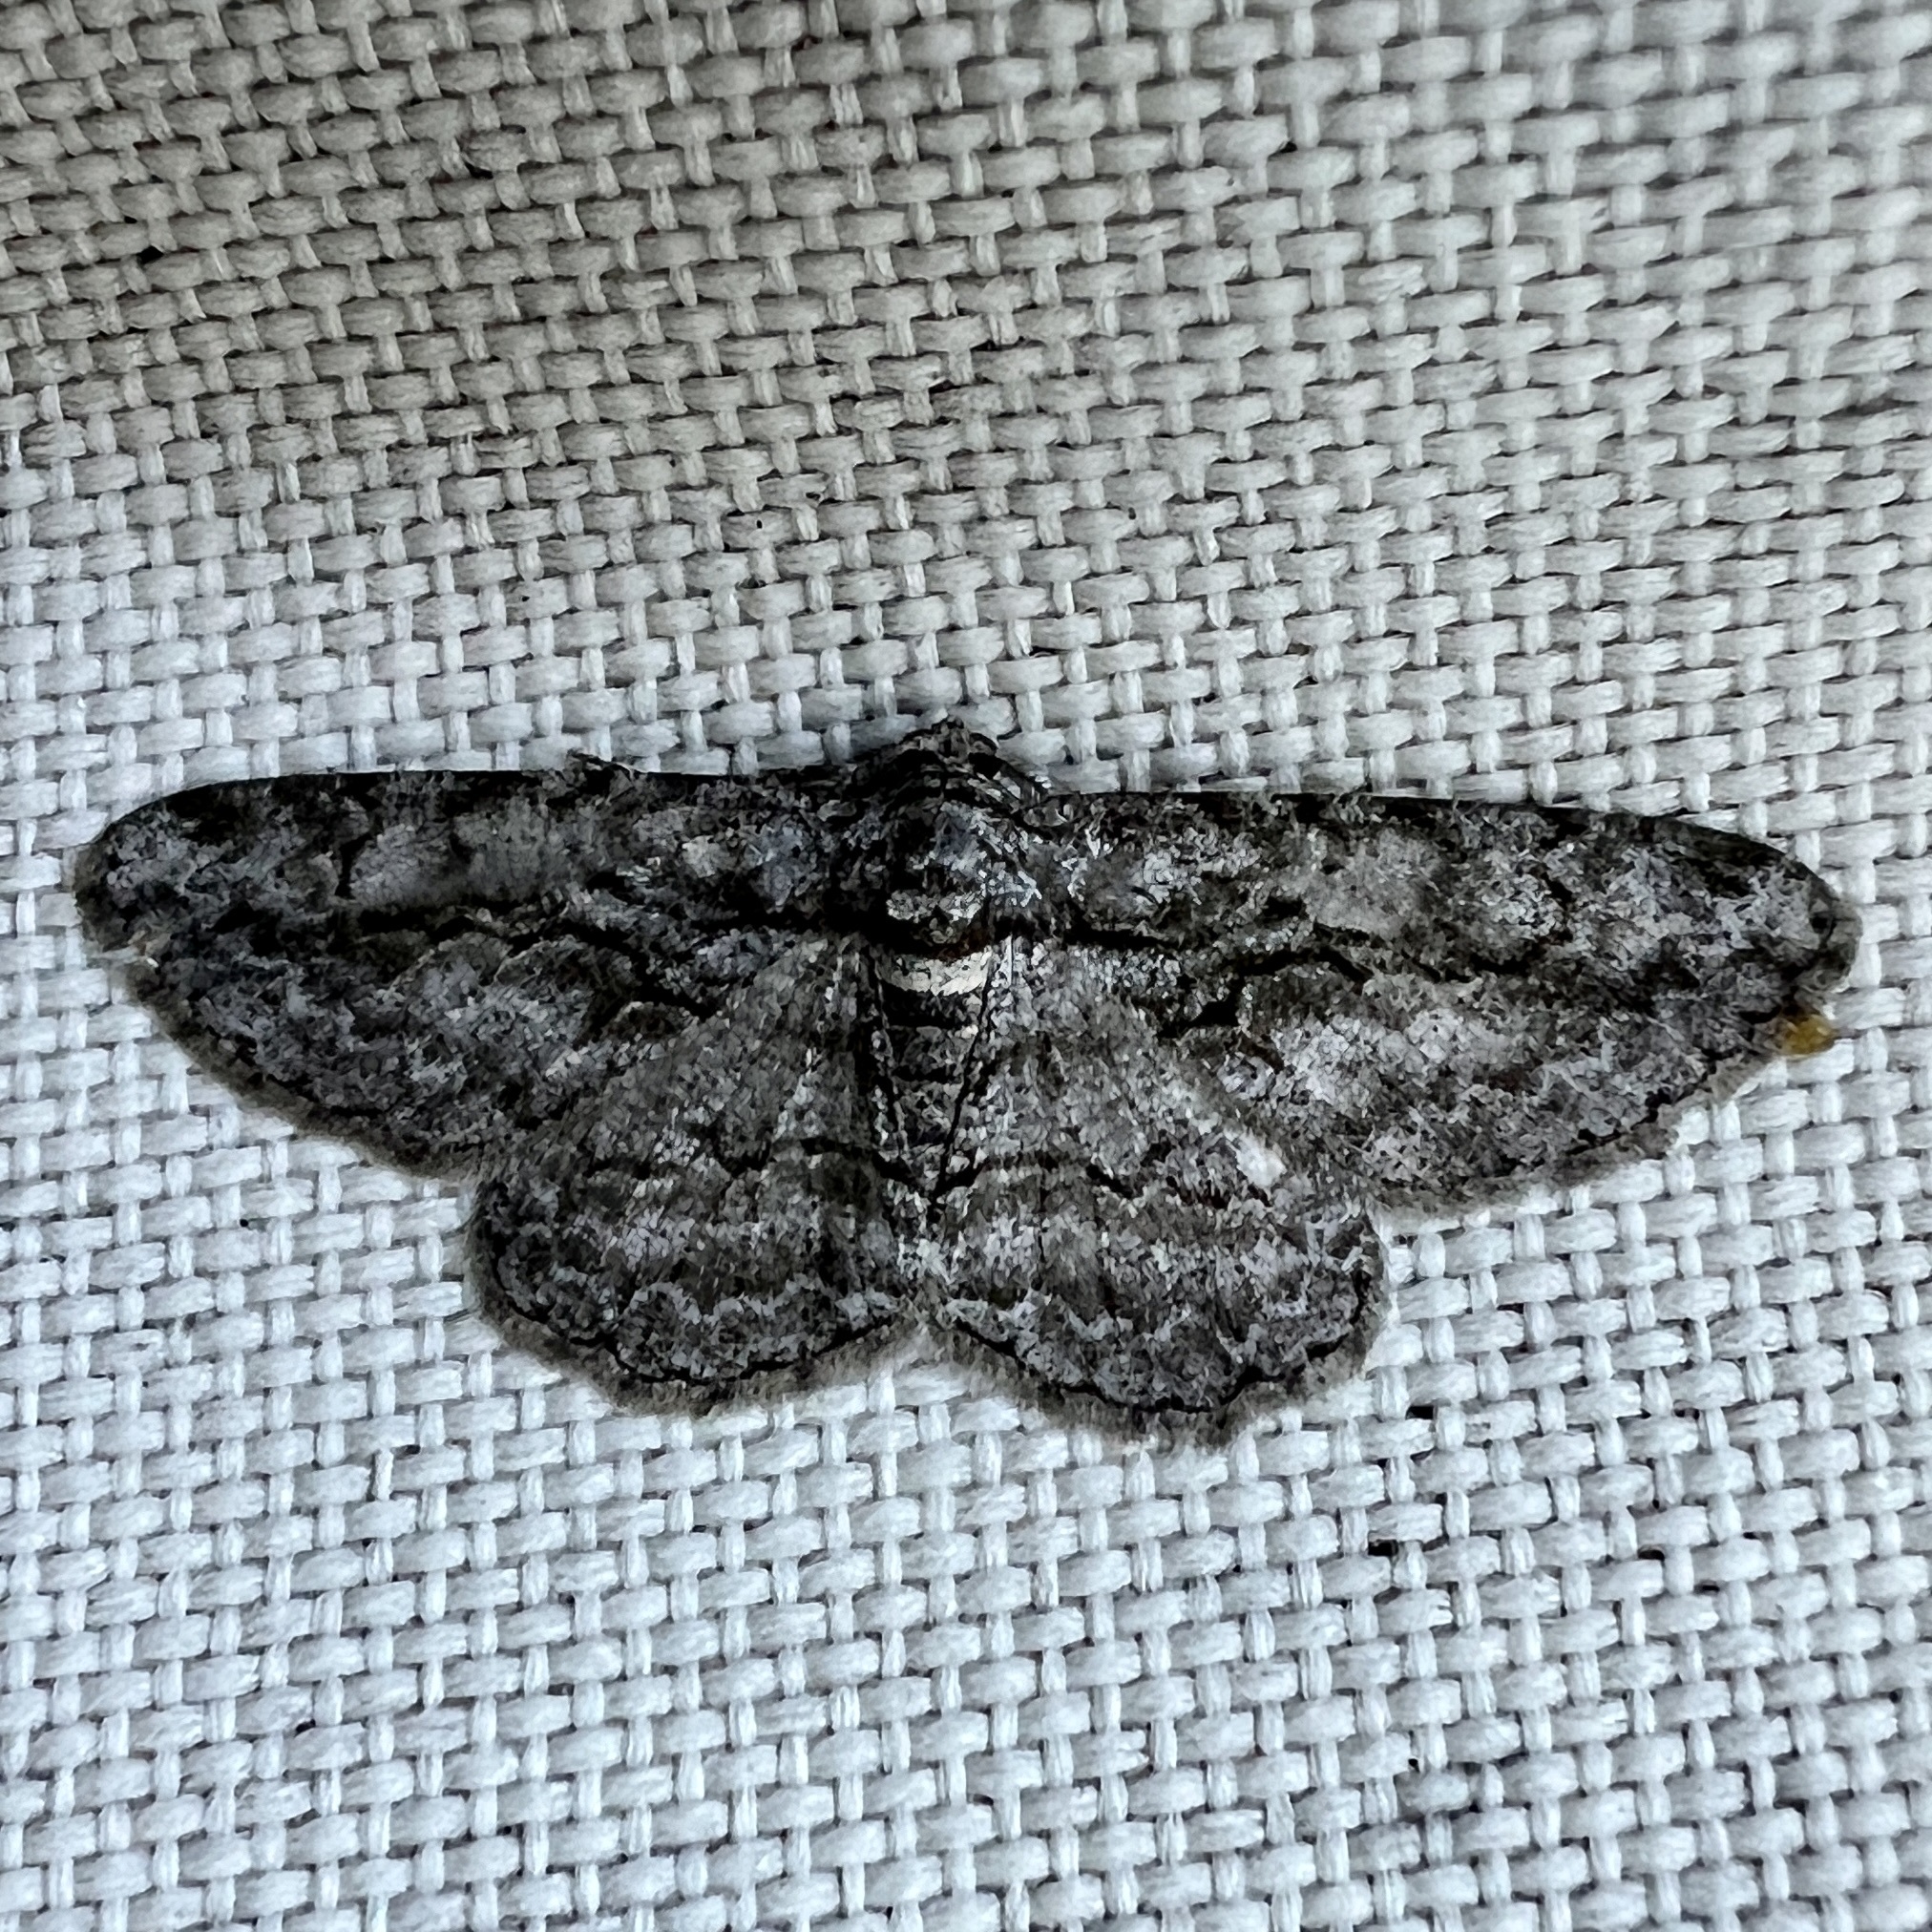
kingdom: Animalia
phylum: Arthropoda
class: Insecta
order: Lepidoptera
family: Geometridae
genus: Anavitrinella
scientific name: Anavitrinella pampinaria
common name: Common gray
